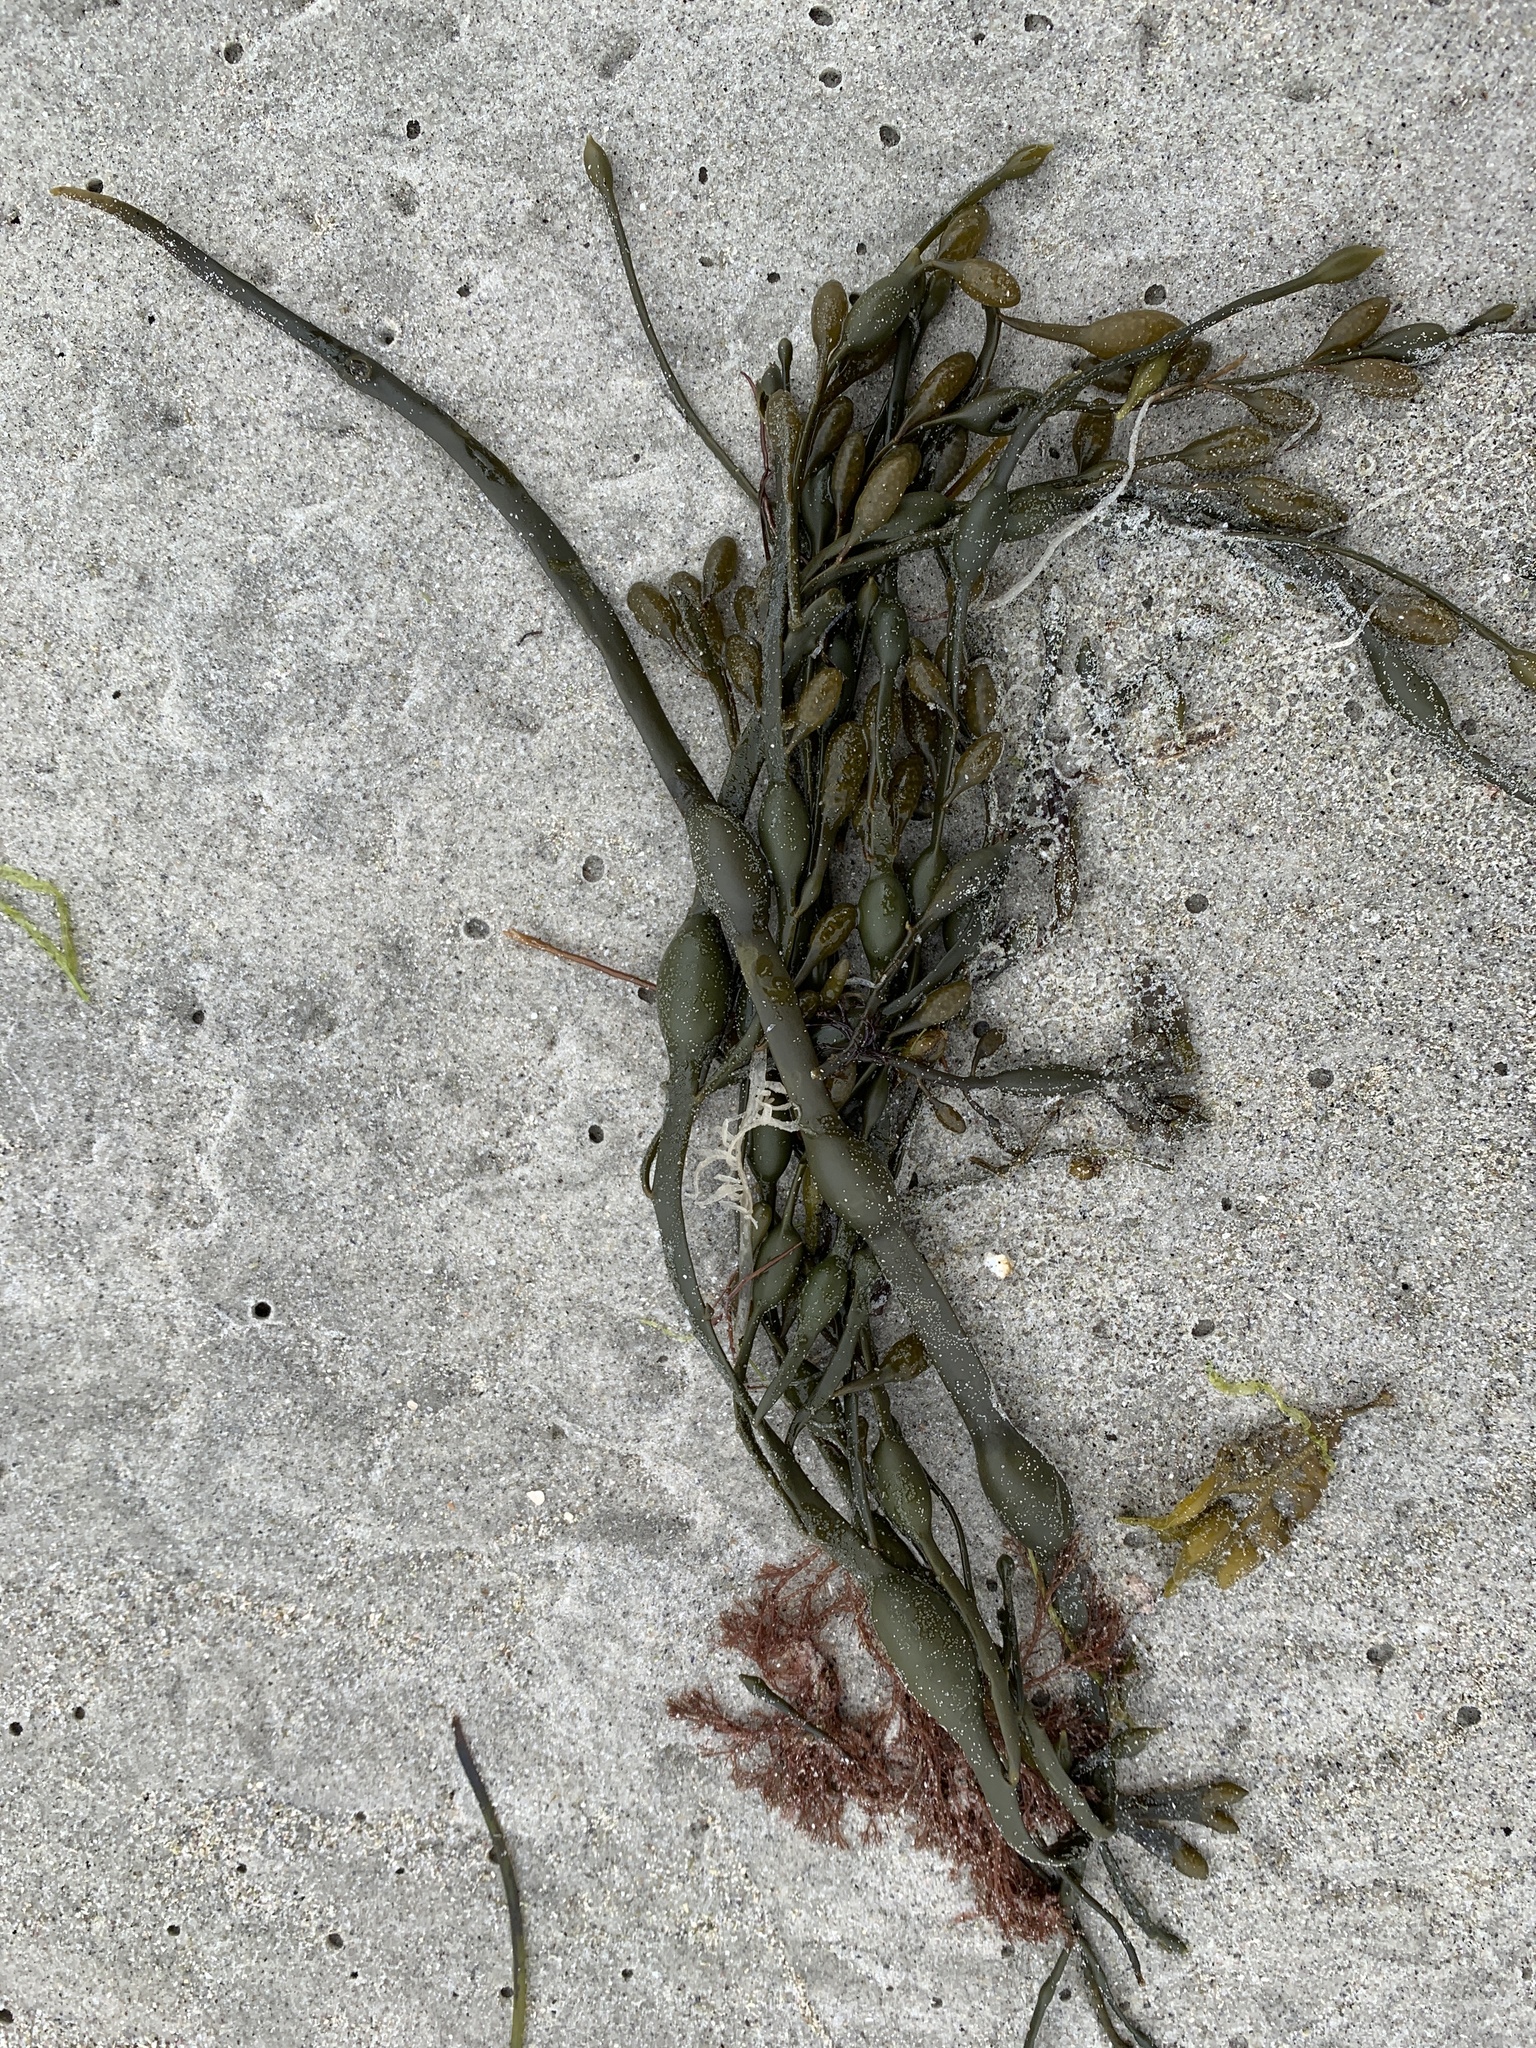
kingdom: Chromista
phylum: Ochrophyta
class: Phaeophyceae
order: Fucales
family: Fucaceae
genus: Ascophyllum
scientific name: Ascophyllum nodosum
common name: Knotted wrack
